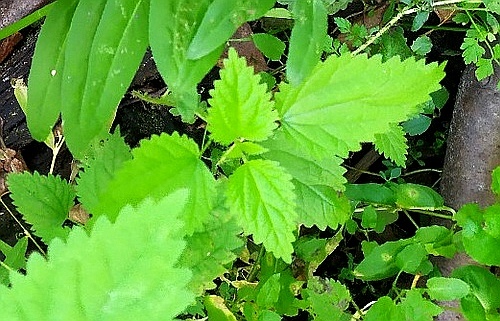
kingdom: Plantae
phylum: Tracheophyta
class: Magnoliopsida
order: Rosales
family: Urticaceae
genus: Urtica
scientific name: Urtica dioica
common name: Common nettle
